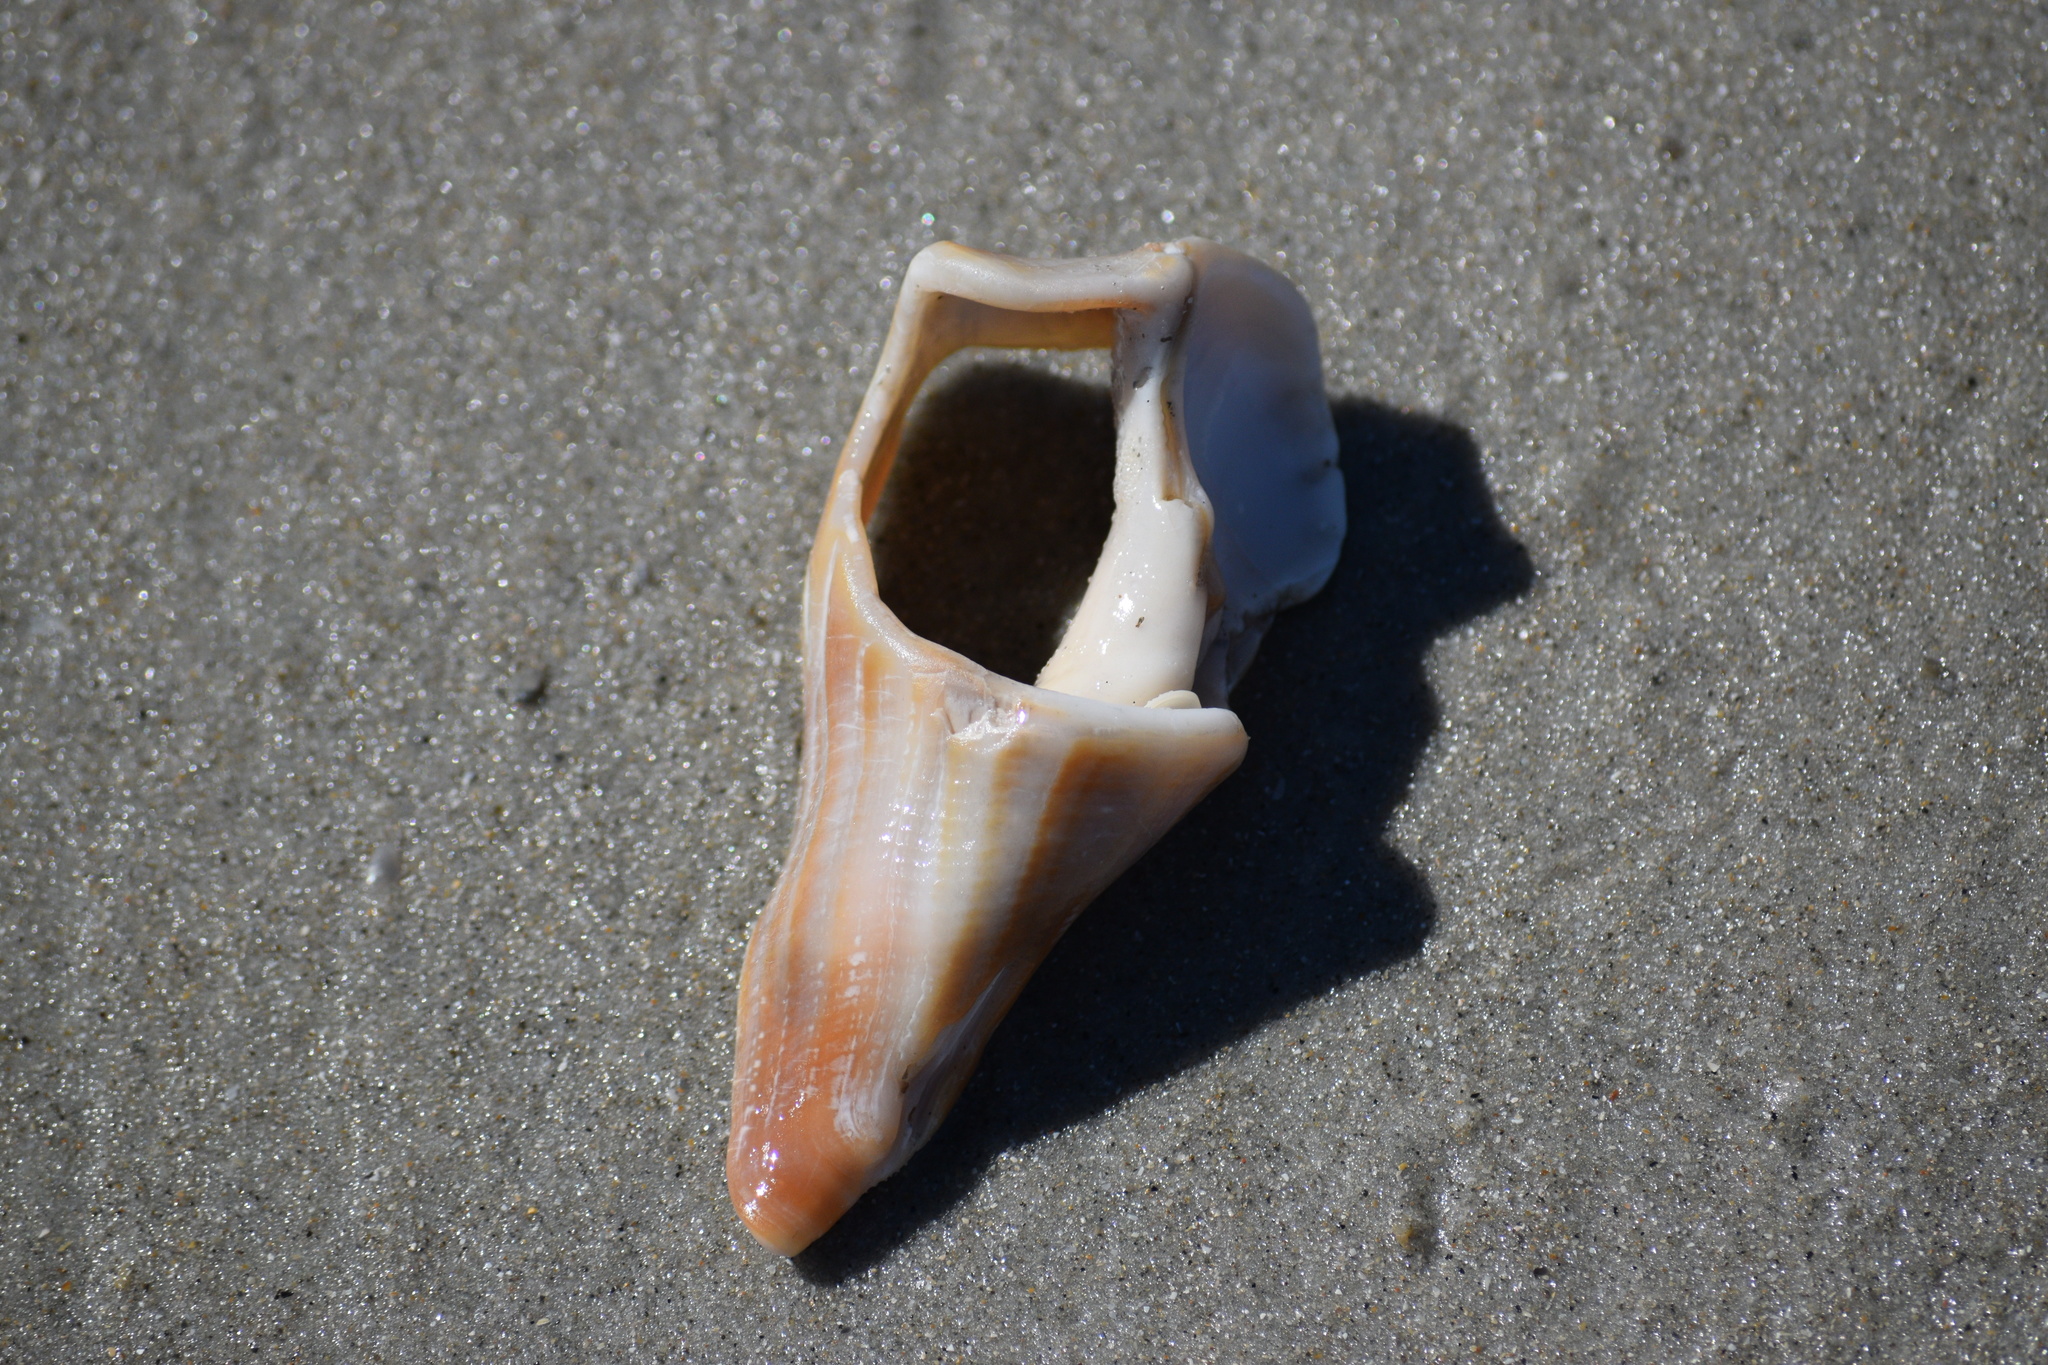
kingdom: Animalia
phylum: Mollusca
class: Gastropoda
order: Neogastropoda
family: Busyconidae
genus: Busycon
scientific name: Busycon carica
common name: Knobbed whelk
